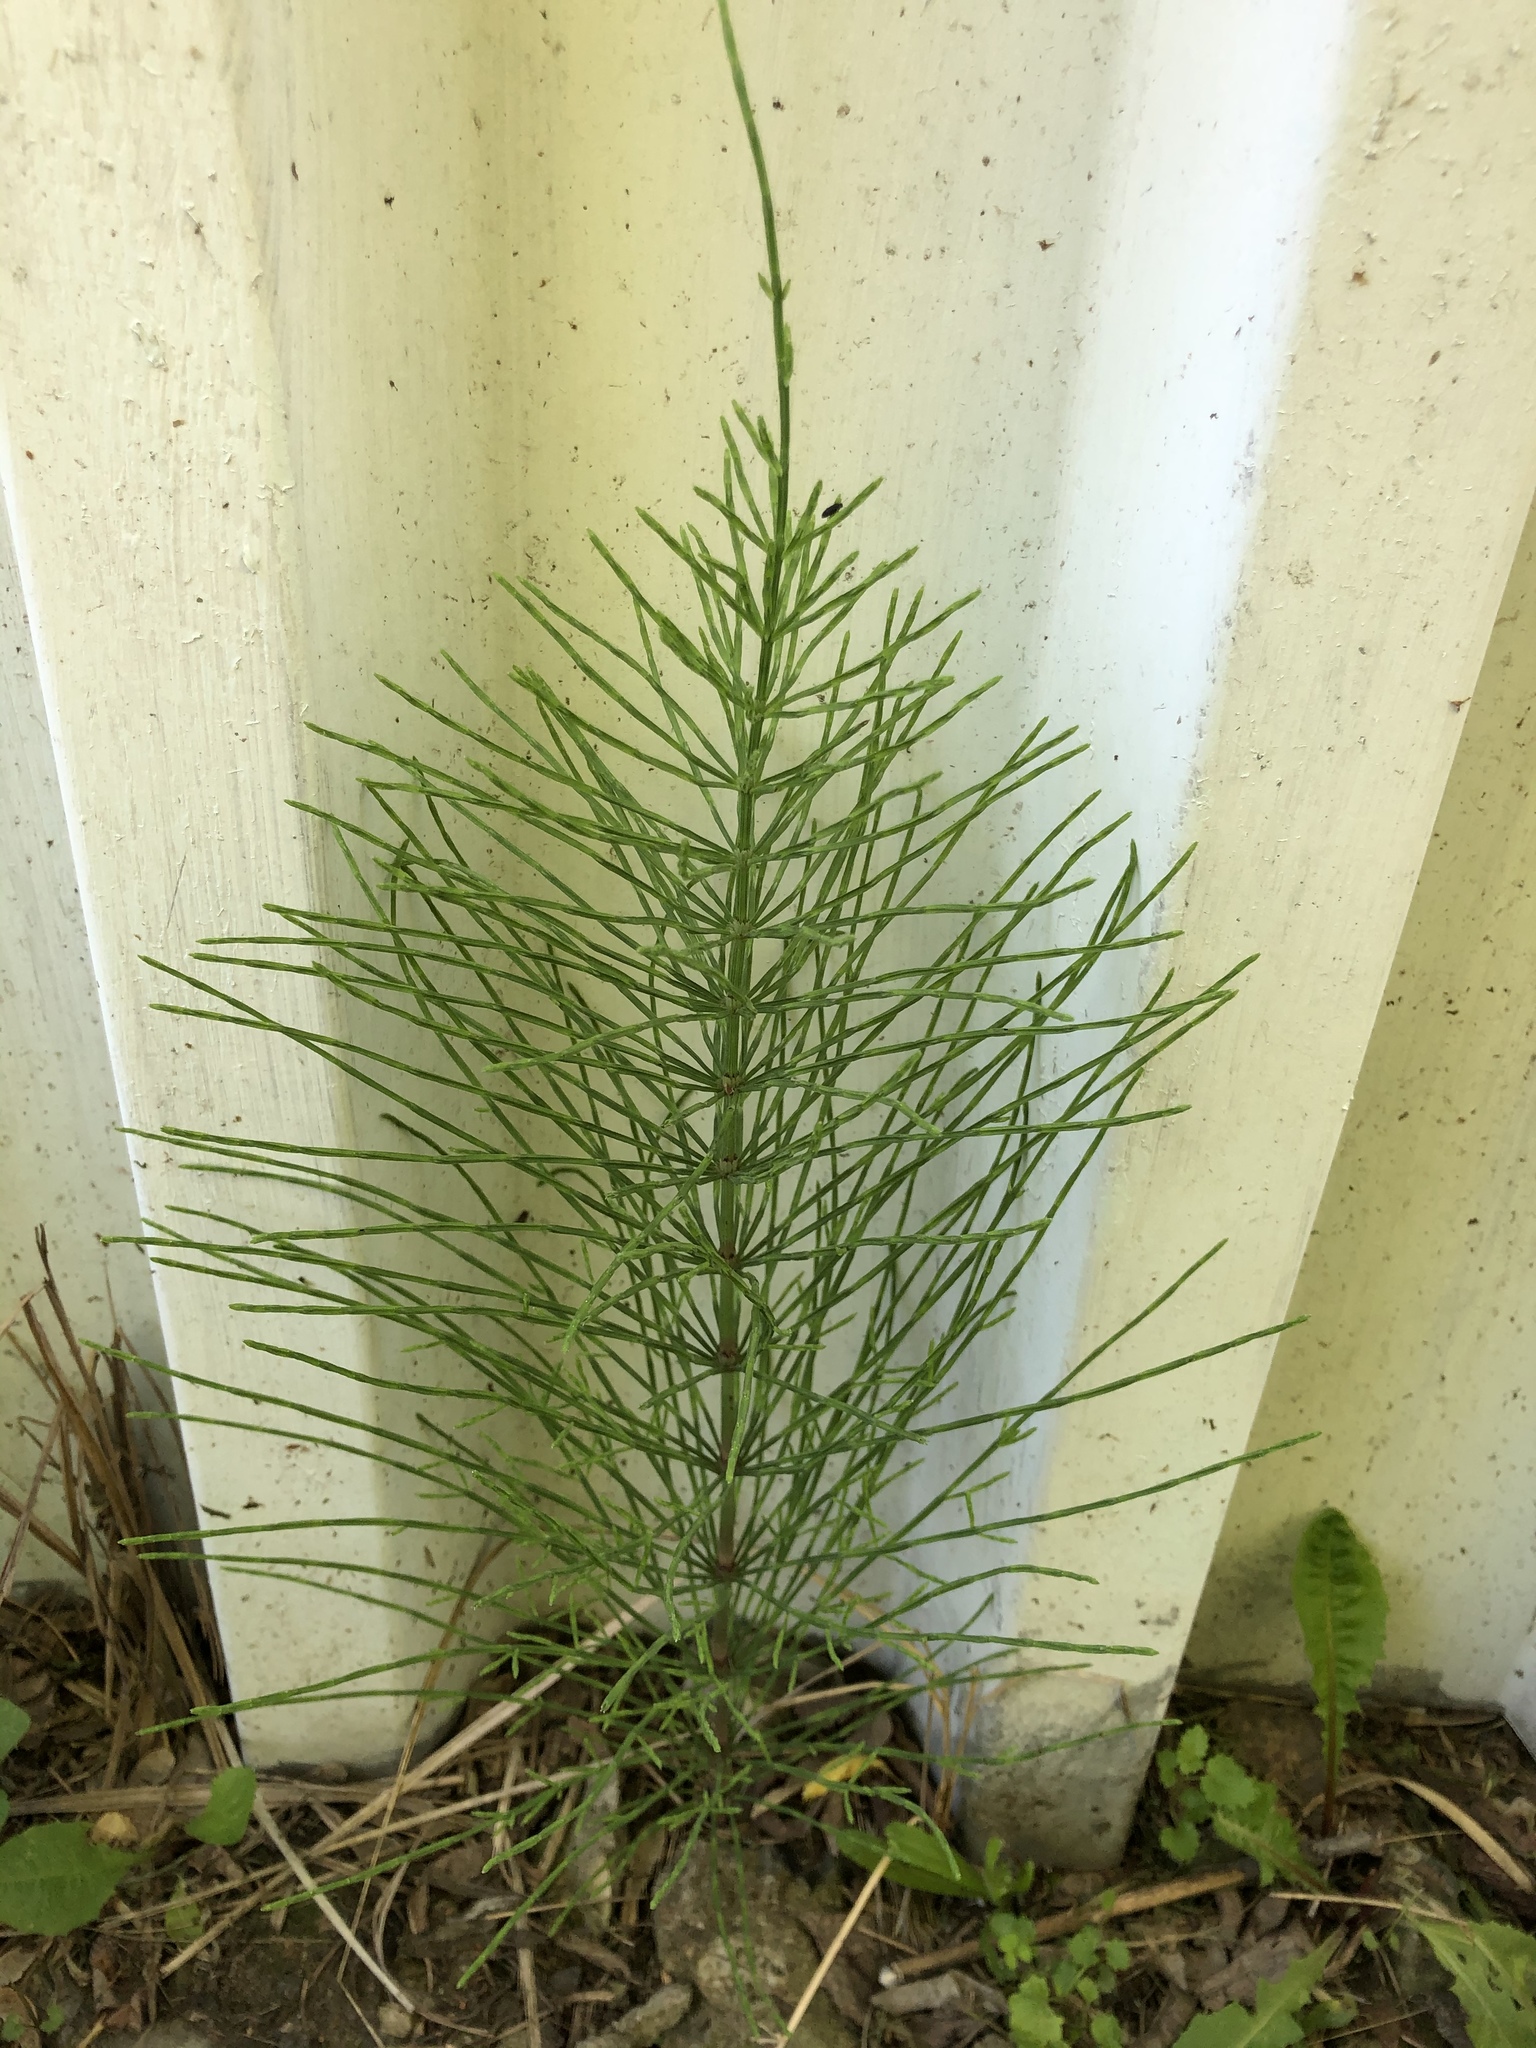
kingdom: Plantae
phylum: Tracheophyta
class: Polypodiopsida
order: Equisetales
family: Equisetaceae
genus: Equisetum
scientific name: Equisetum arvense
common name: Field horsetail
